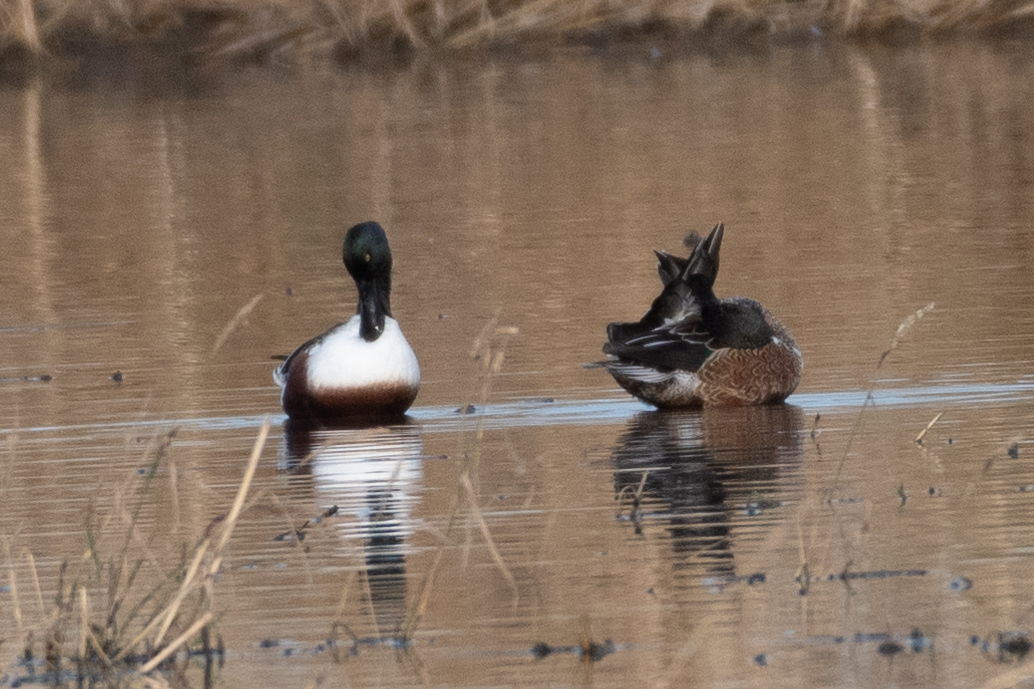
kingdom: Animalia
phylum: Chordata
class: Aves
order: Anseriformes
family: Anatidae
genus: Spatula
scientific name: Spatula clypeata
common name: Northern shoveler
